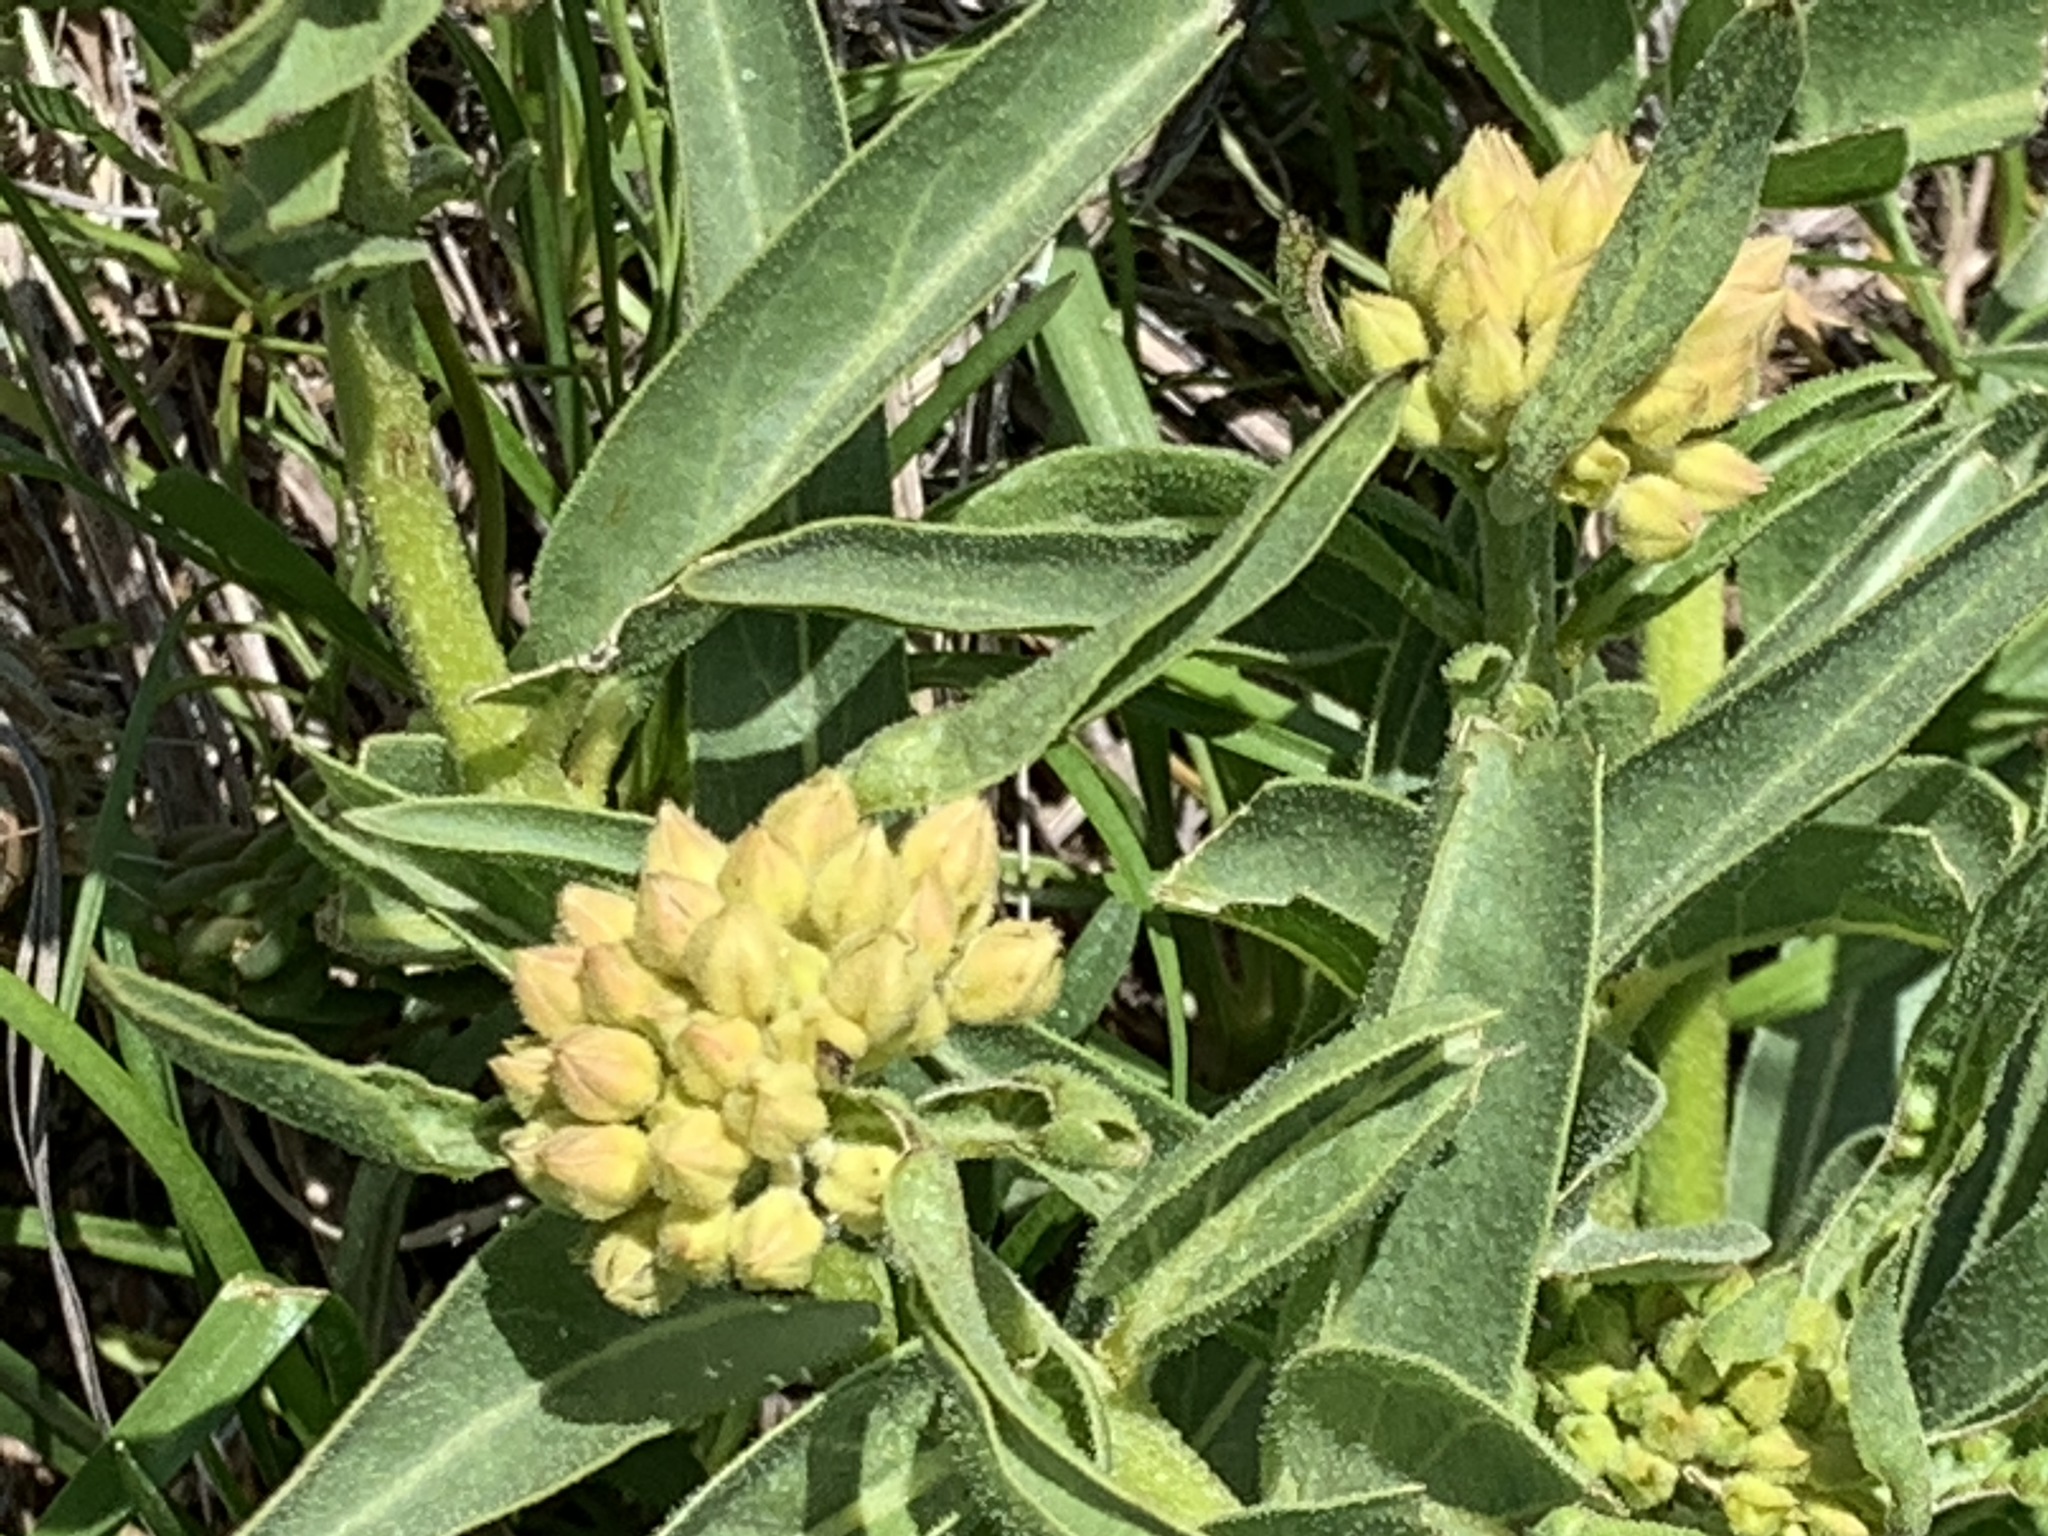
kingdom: Plantae
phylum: Tracheophyta
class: Magnoliopsida
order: Gentianales
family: Apocynaceae
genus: Asclepias
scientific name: Asclepias asperula
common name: Antelope horns
